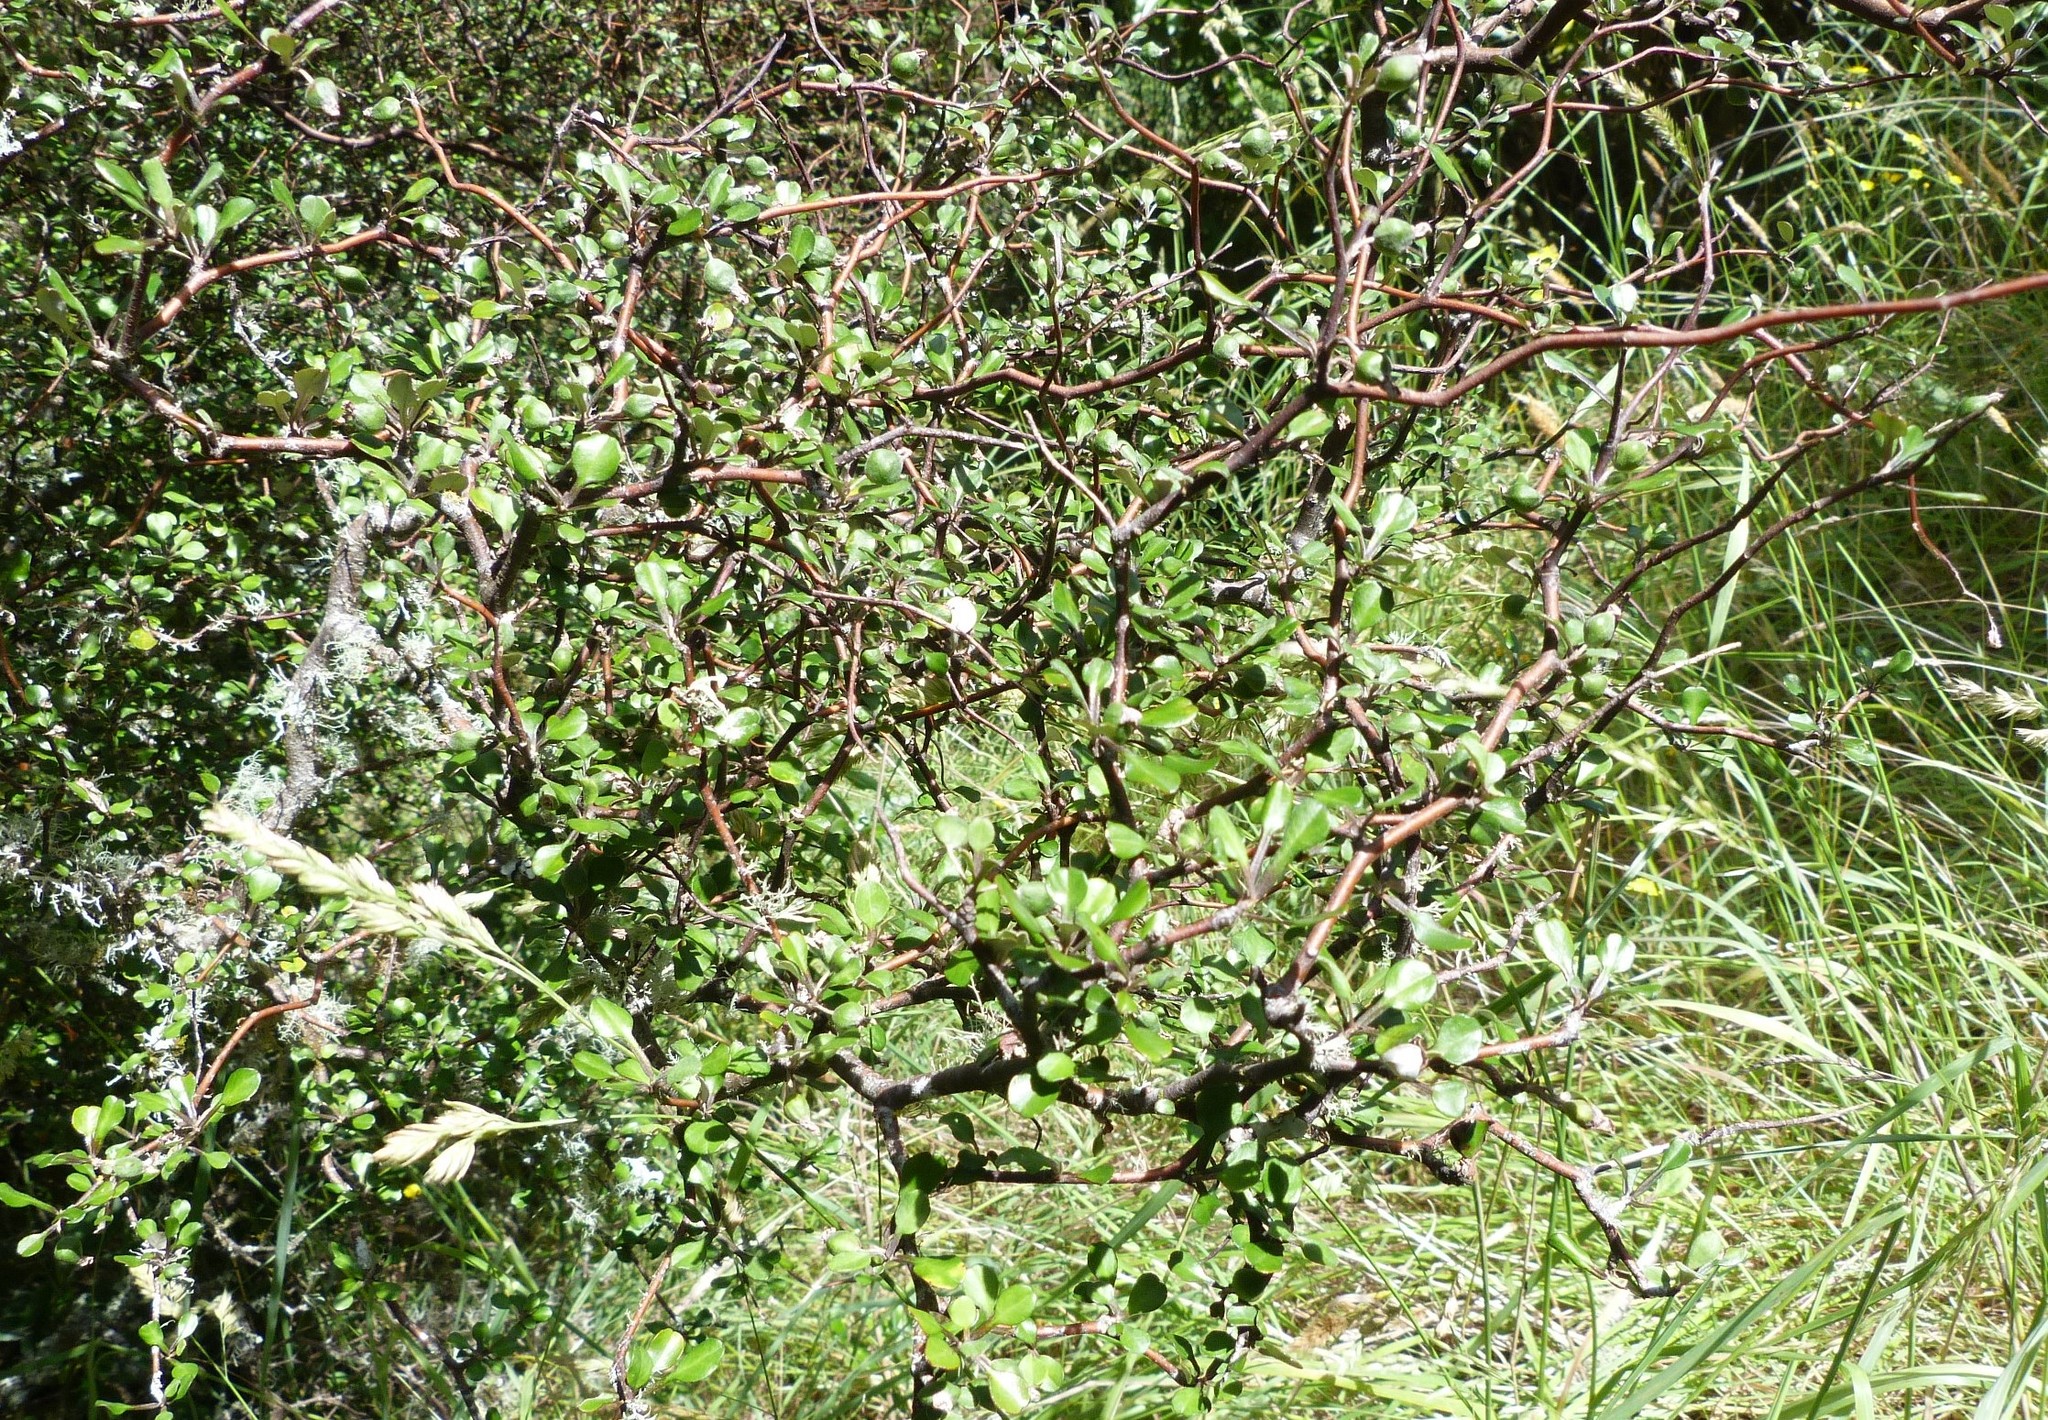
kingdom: Plantae
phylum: Tracheophyta
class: Magnoliopsida
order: Asterales
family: Argophyllaceae
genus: Corokia
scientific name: Corokia cotoneaster
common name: Wire nettingbush
